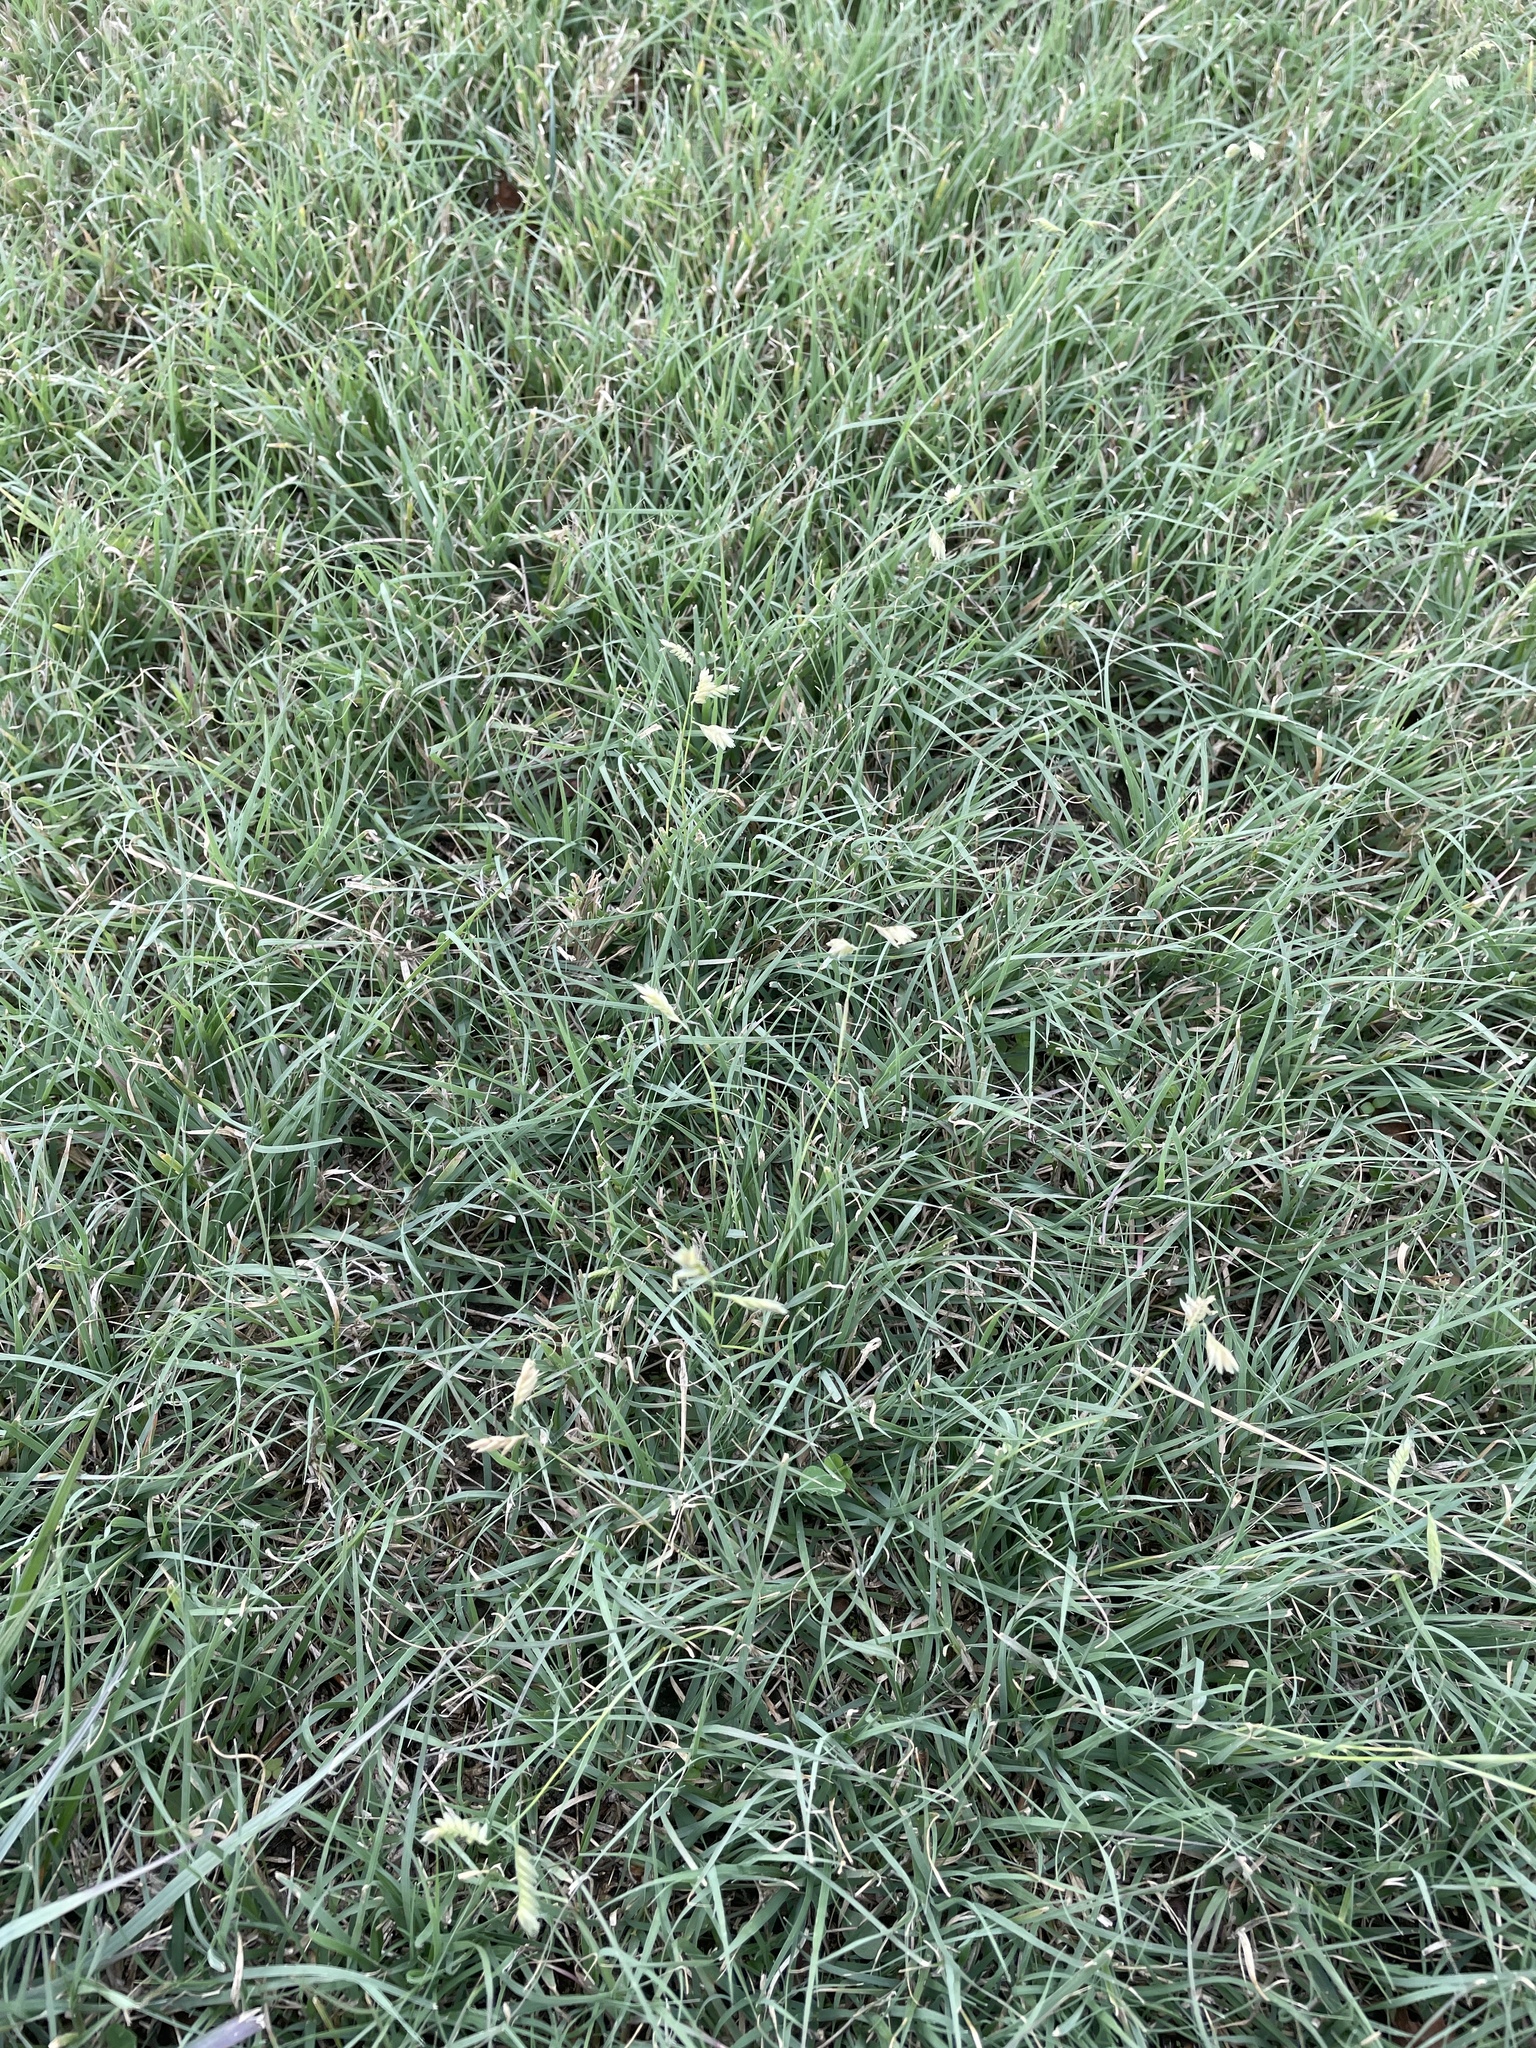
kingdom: Plantae
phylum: Tracheophyta
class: Liliopsida
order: Poales
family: Poaceae
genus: Bouteloua
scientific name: Bouteloua dactyloides
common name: Buffalo grass
